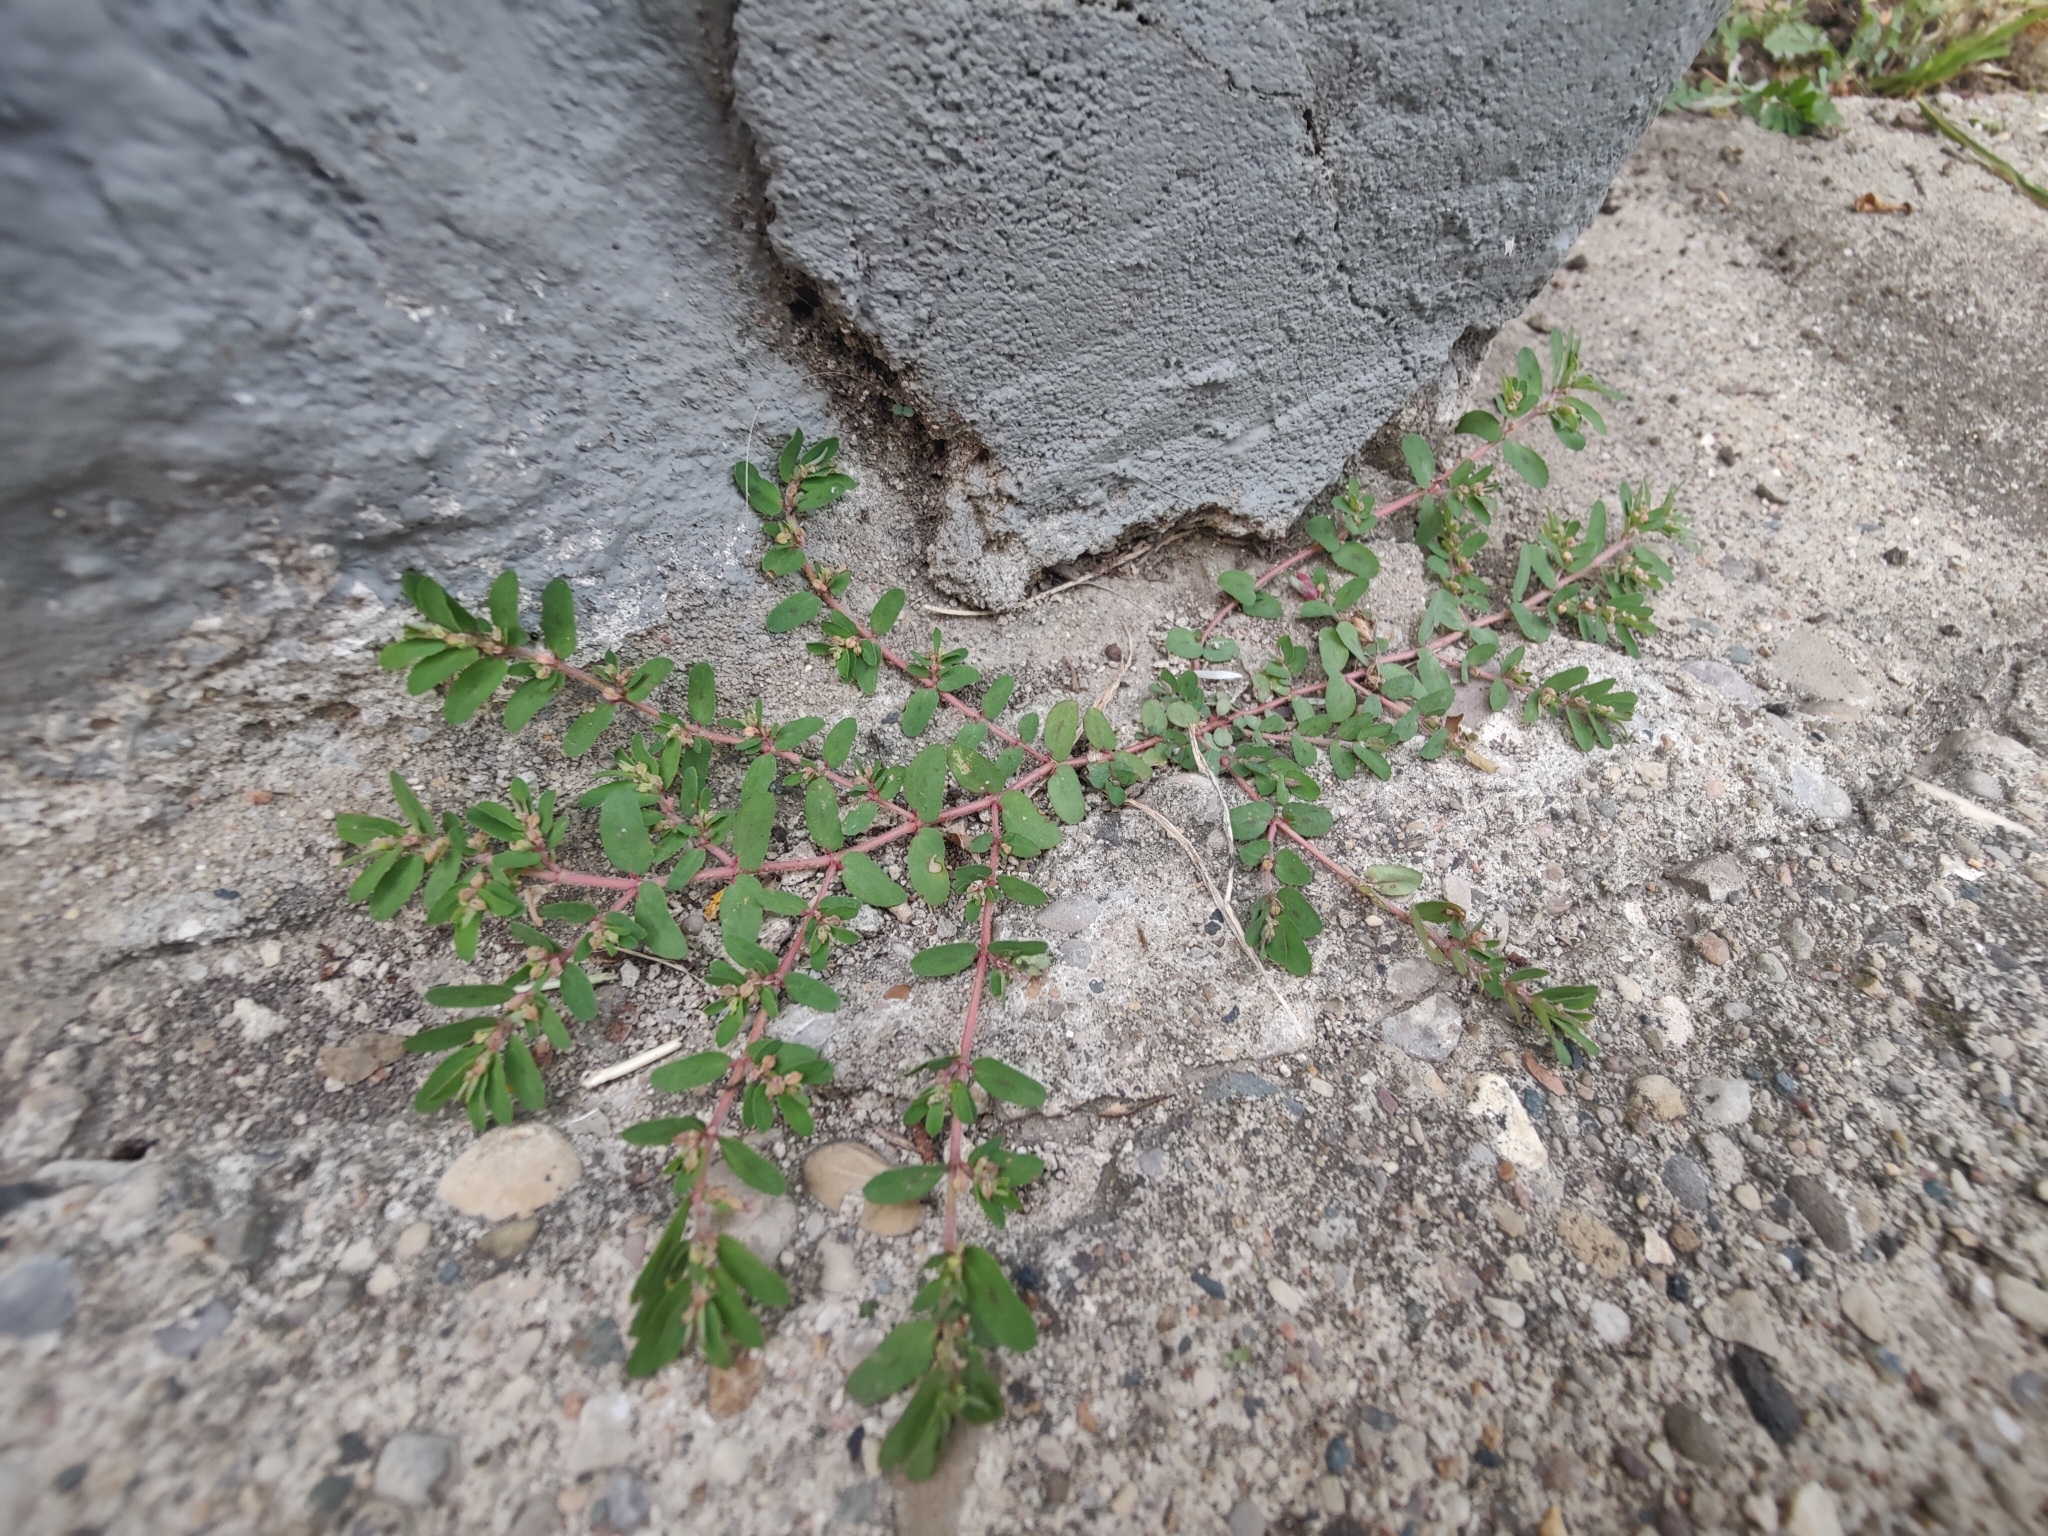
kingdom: Plantae
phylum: Tracheophyta
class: Magnoliopsida
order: Malpighiales
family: Euphorbiaceae
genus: Euphorbia
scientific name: Euphorbia maculata
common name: Spotted spurge
